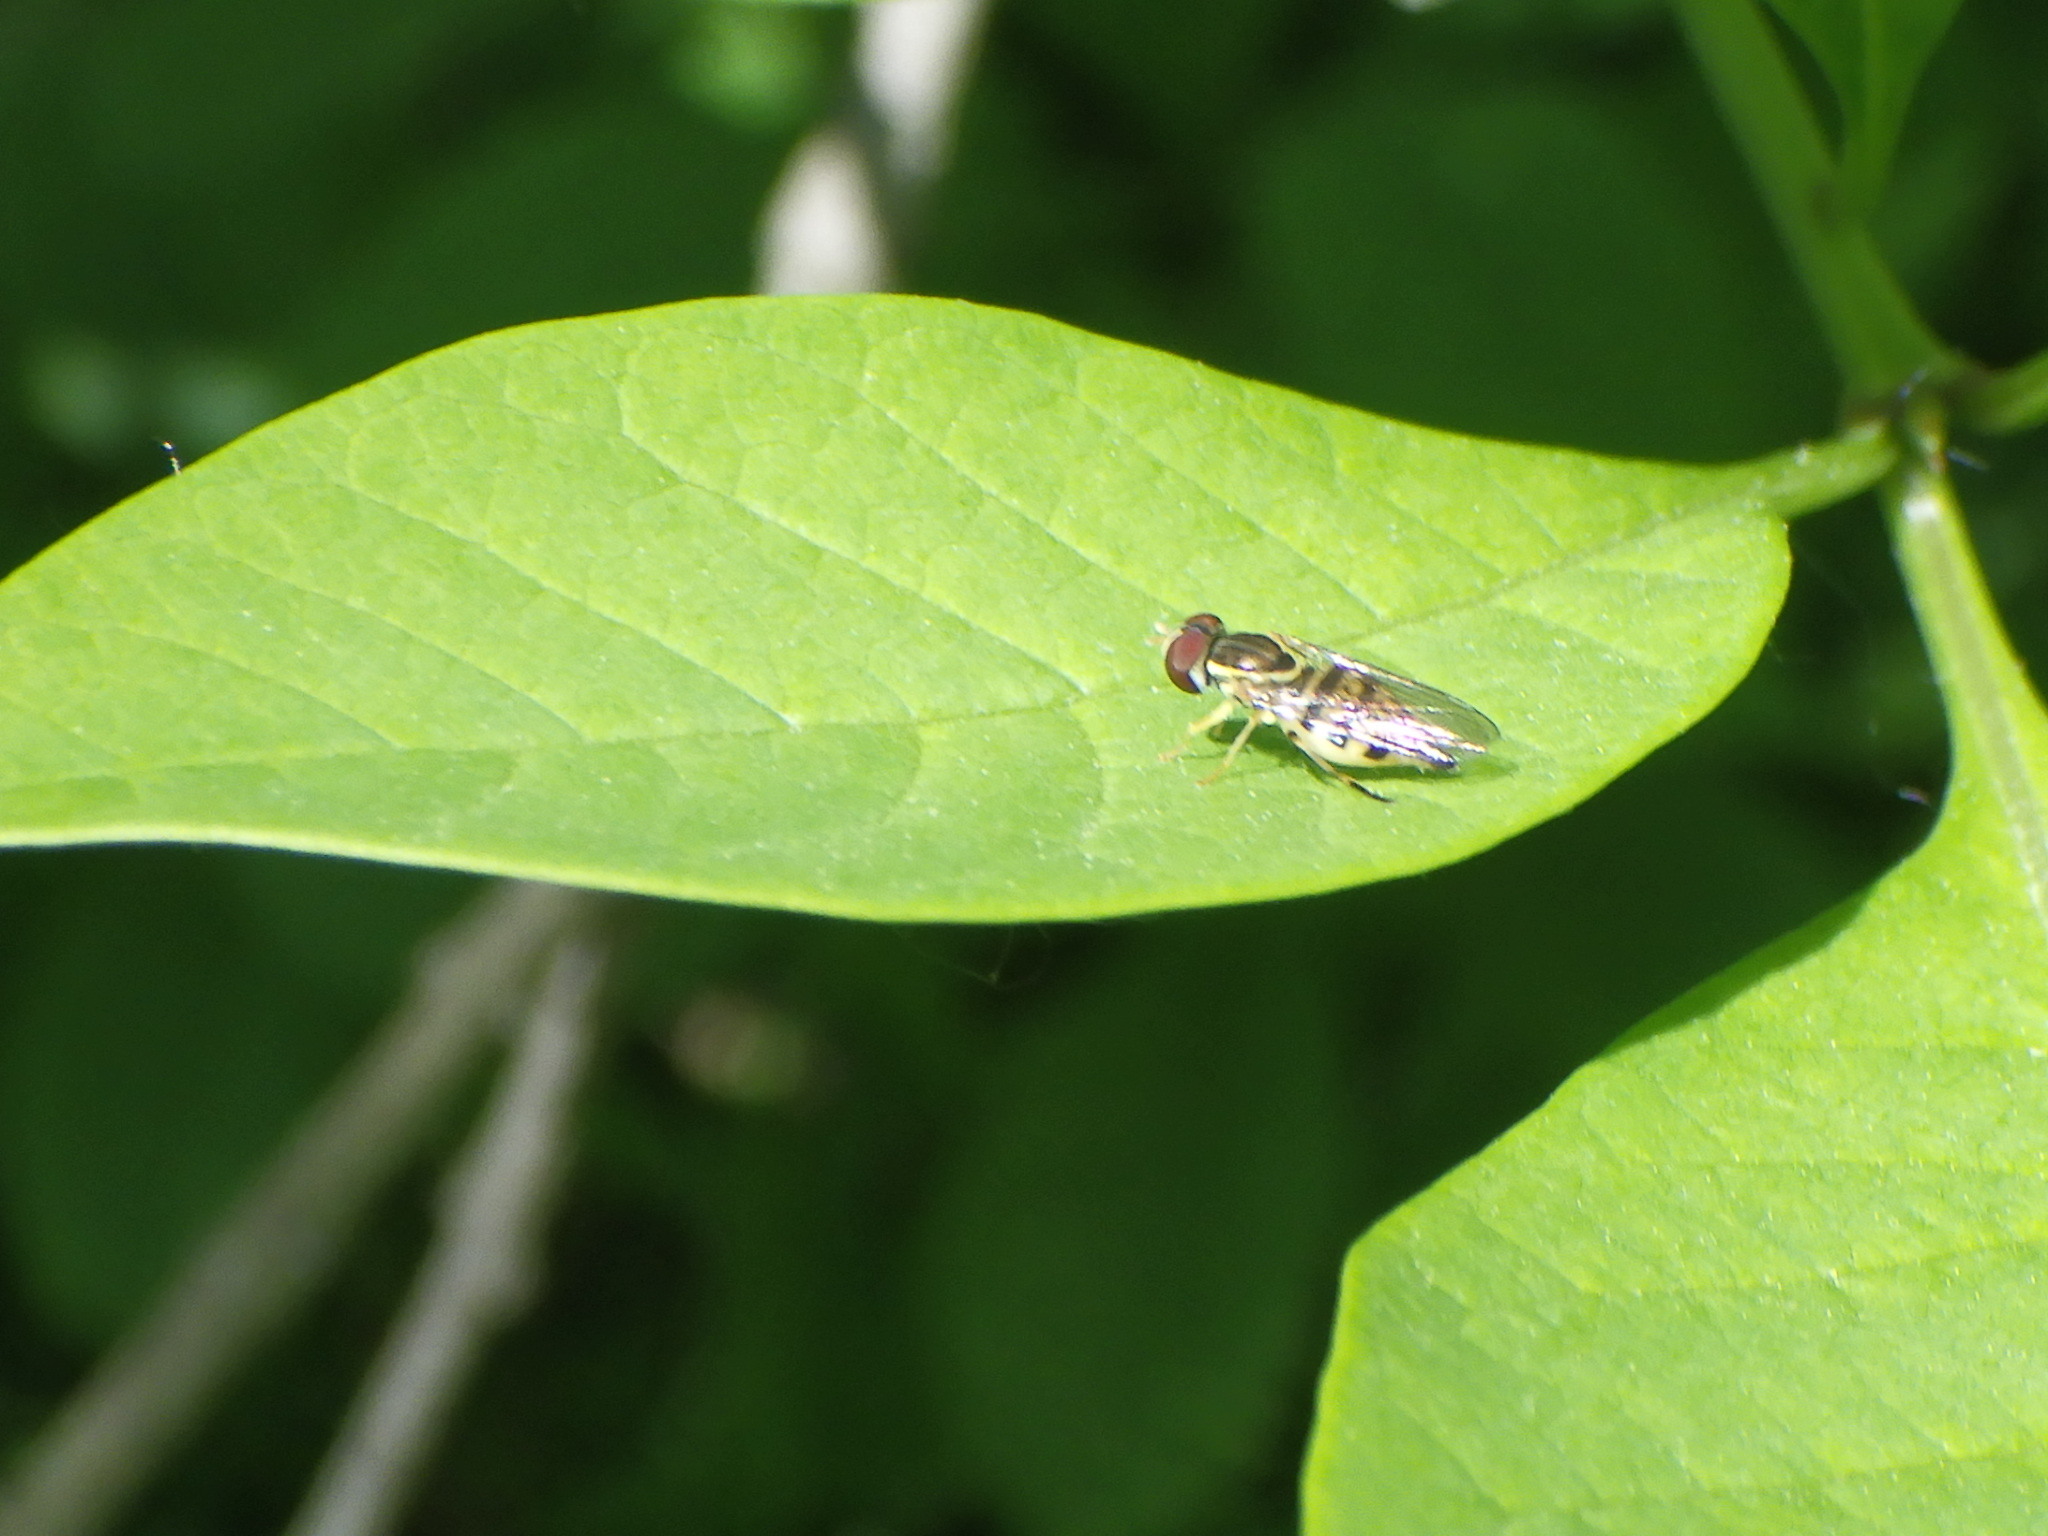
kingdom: Animalia
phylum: Arthropoda
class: Insecta
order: Diptera
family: Syrphidae
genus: Toxomerus
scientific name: Toxomerus geminatus
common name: Eastern calligrapher
